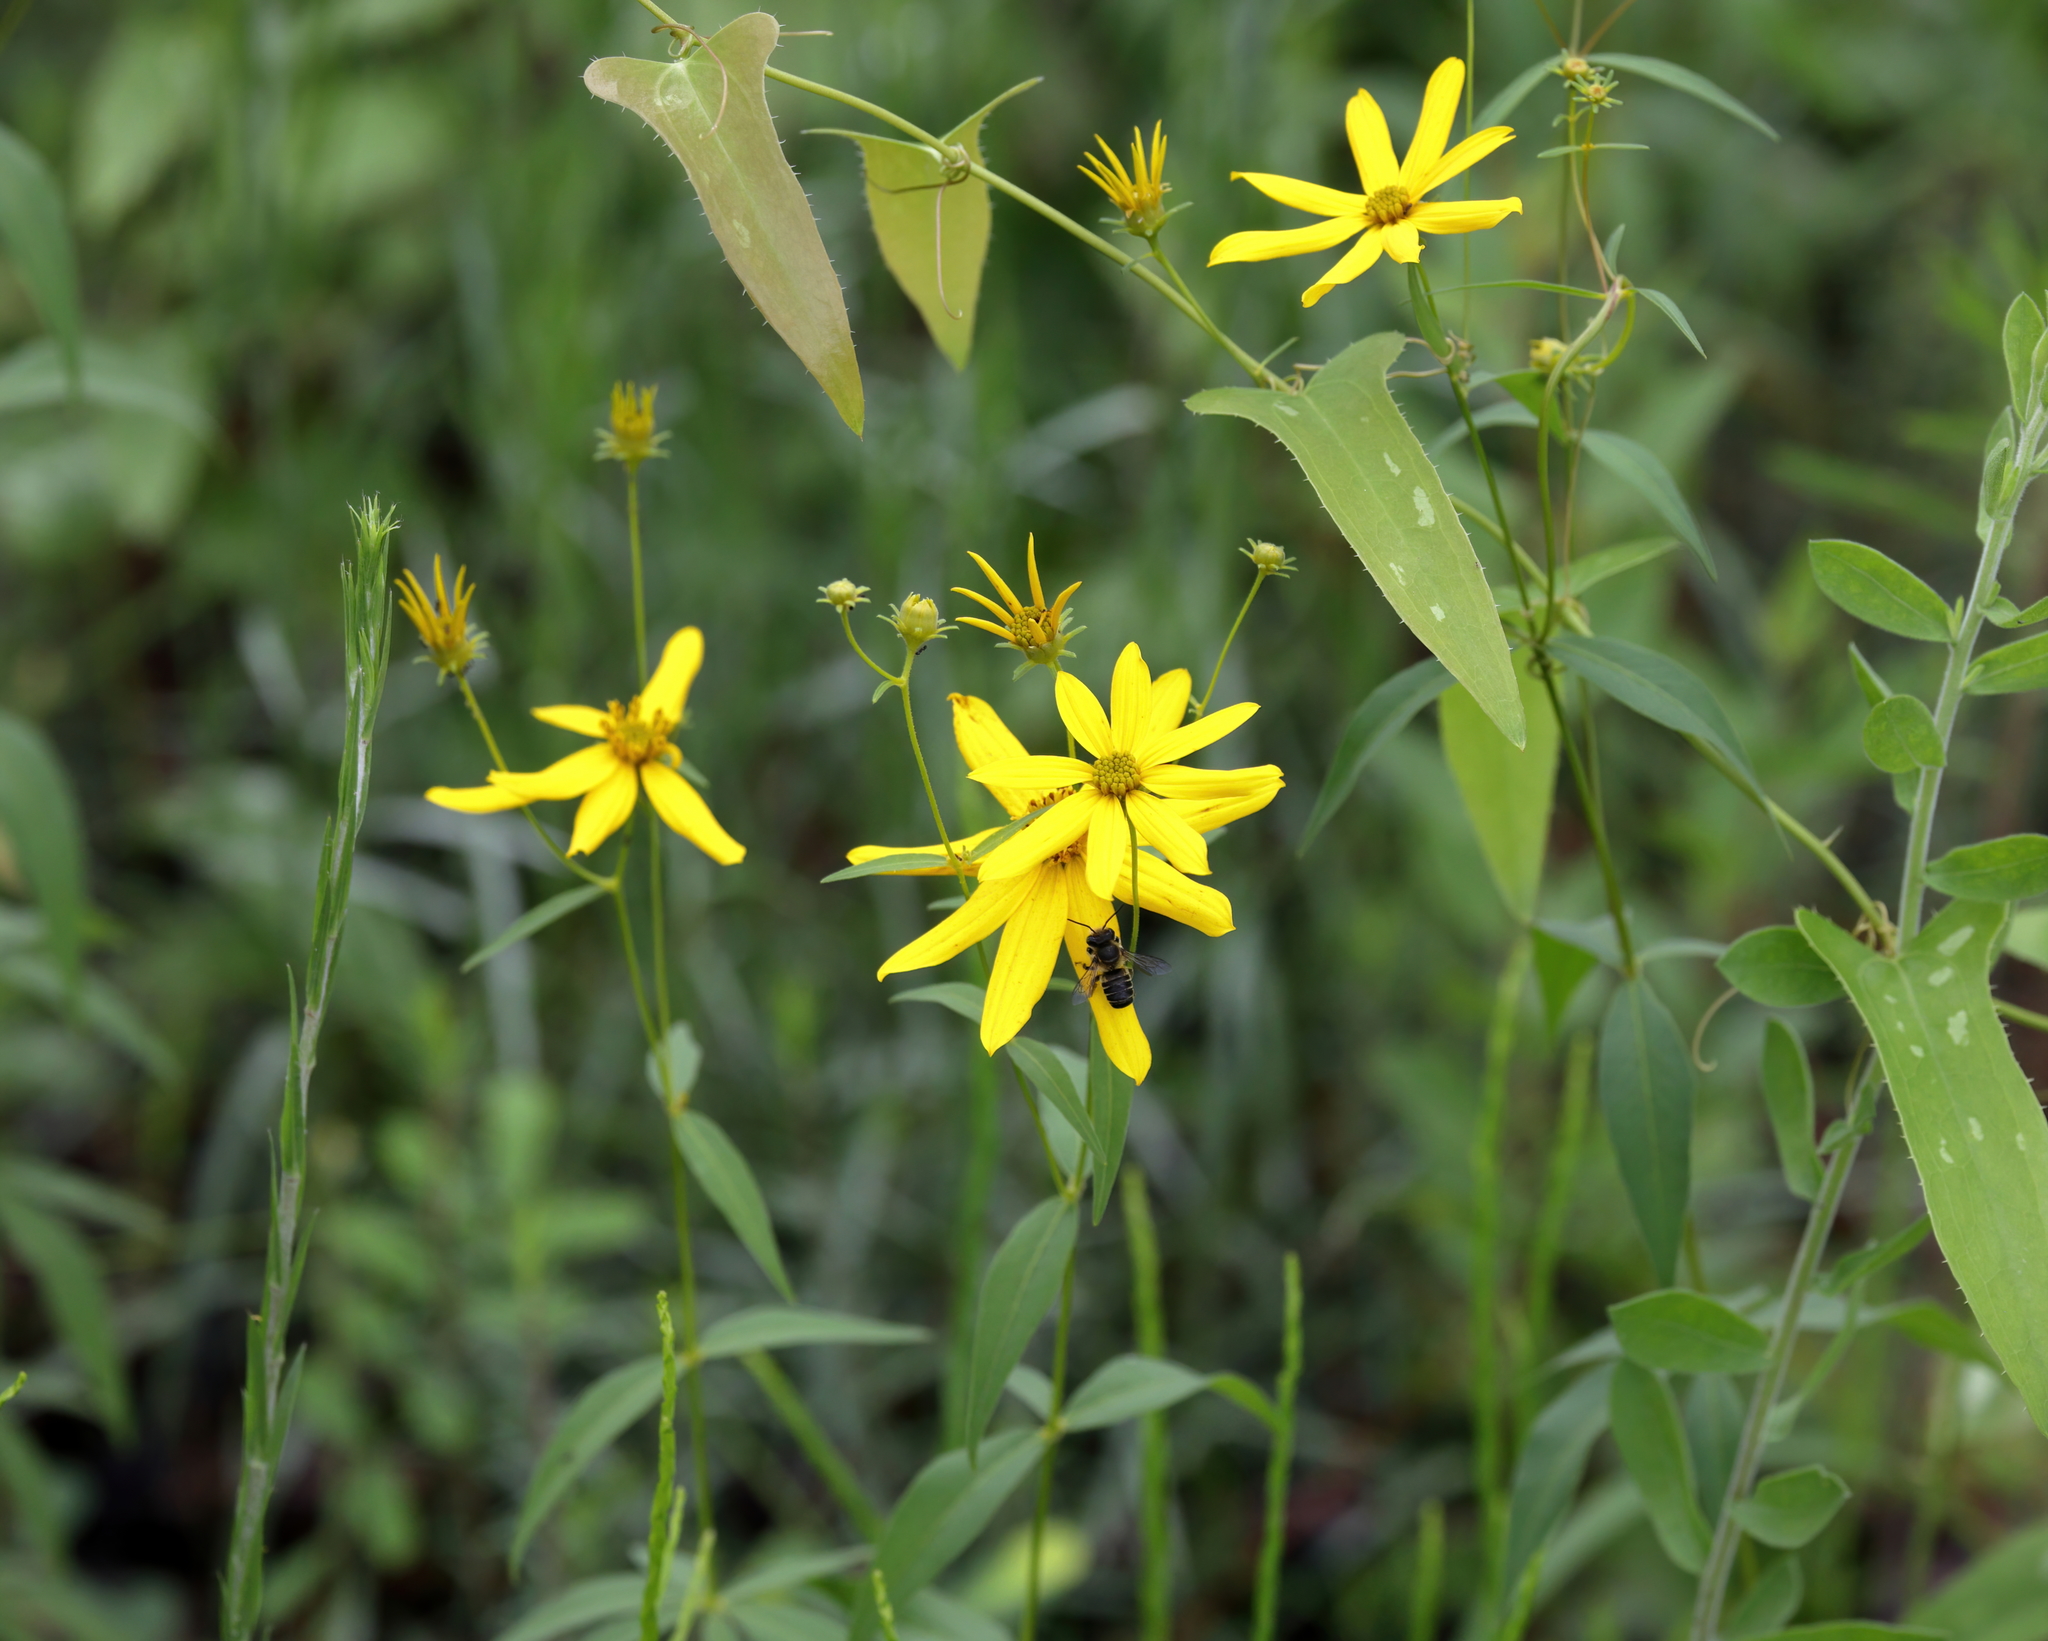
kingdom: Plantae
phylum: Tracheophyta
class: Magnoliopsida
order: Asterales
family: Asteraceae
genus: Coreopsis
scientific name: Coreopsis major
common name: Forest tickseed
